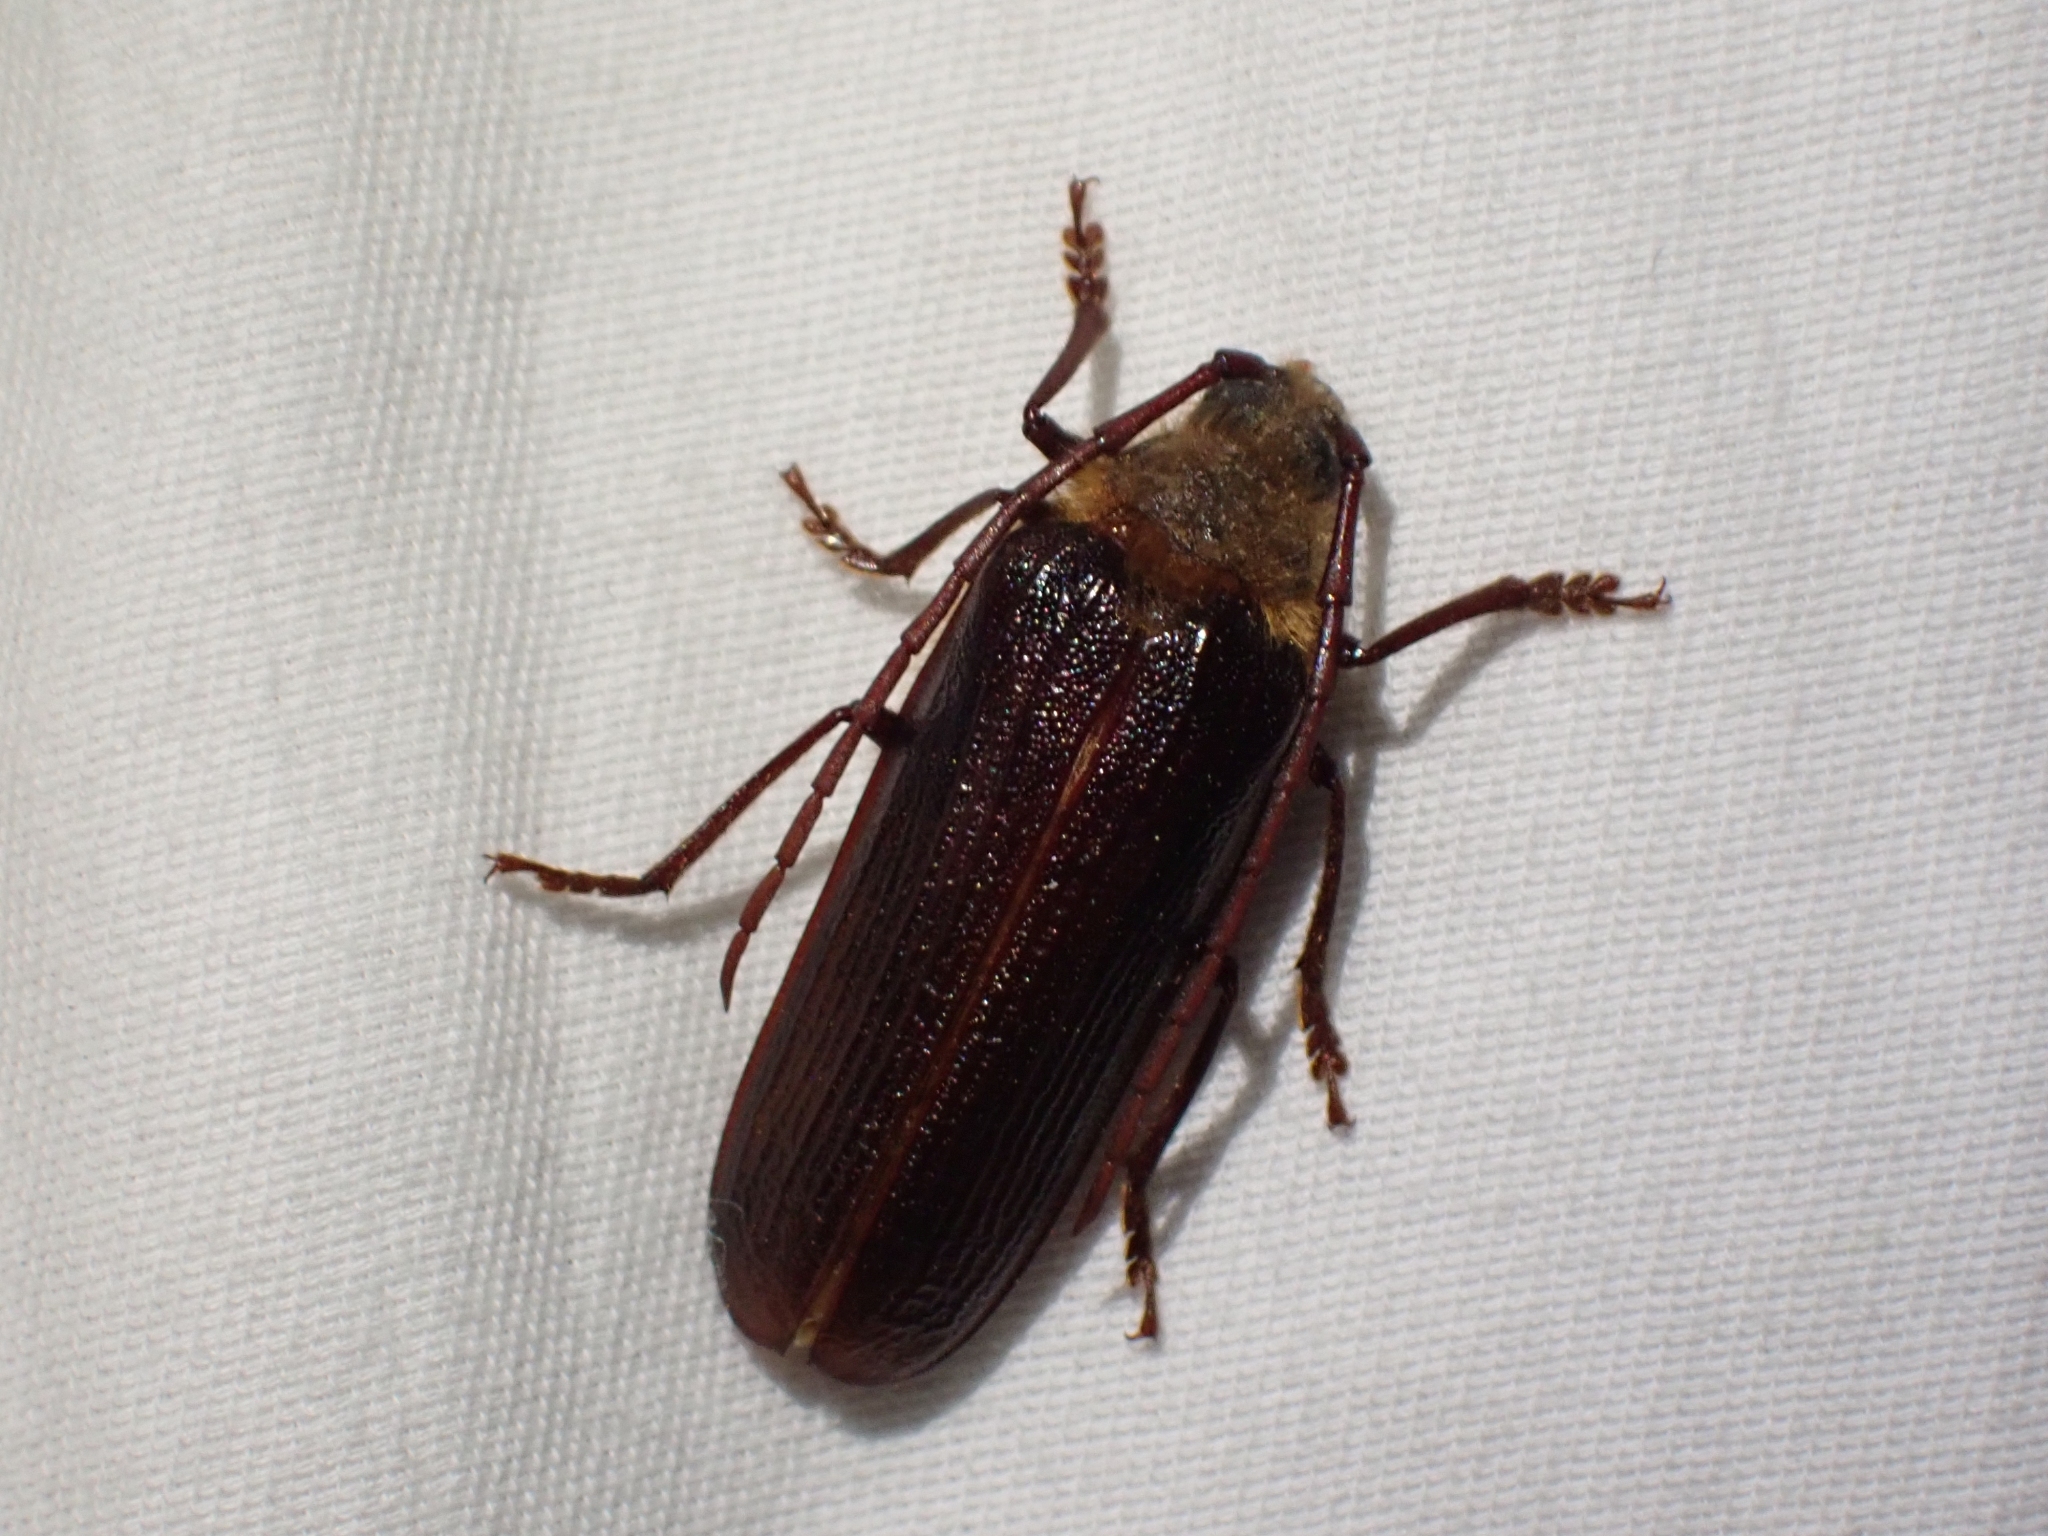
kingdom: Animalia
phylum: Arthropoda
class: Insecta
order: Coleoptera
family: Cerambycidae
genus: Tragosoma
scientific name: Tragosoma harrisii
